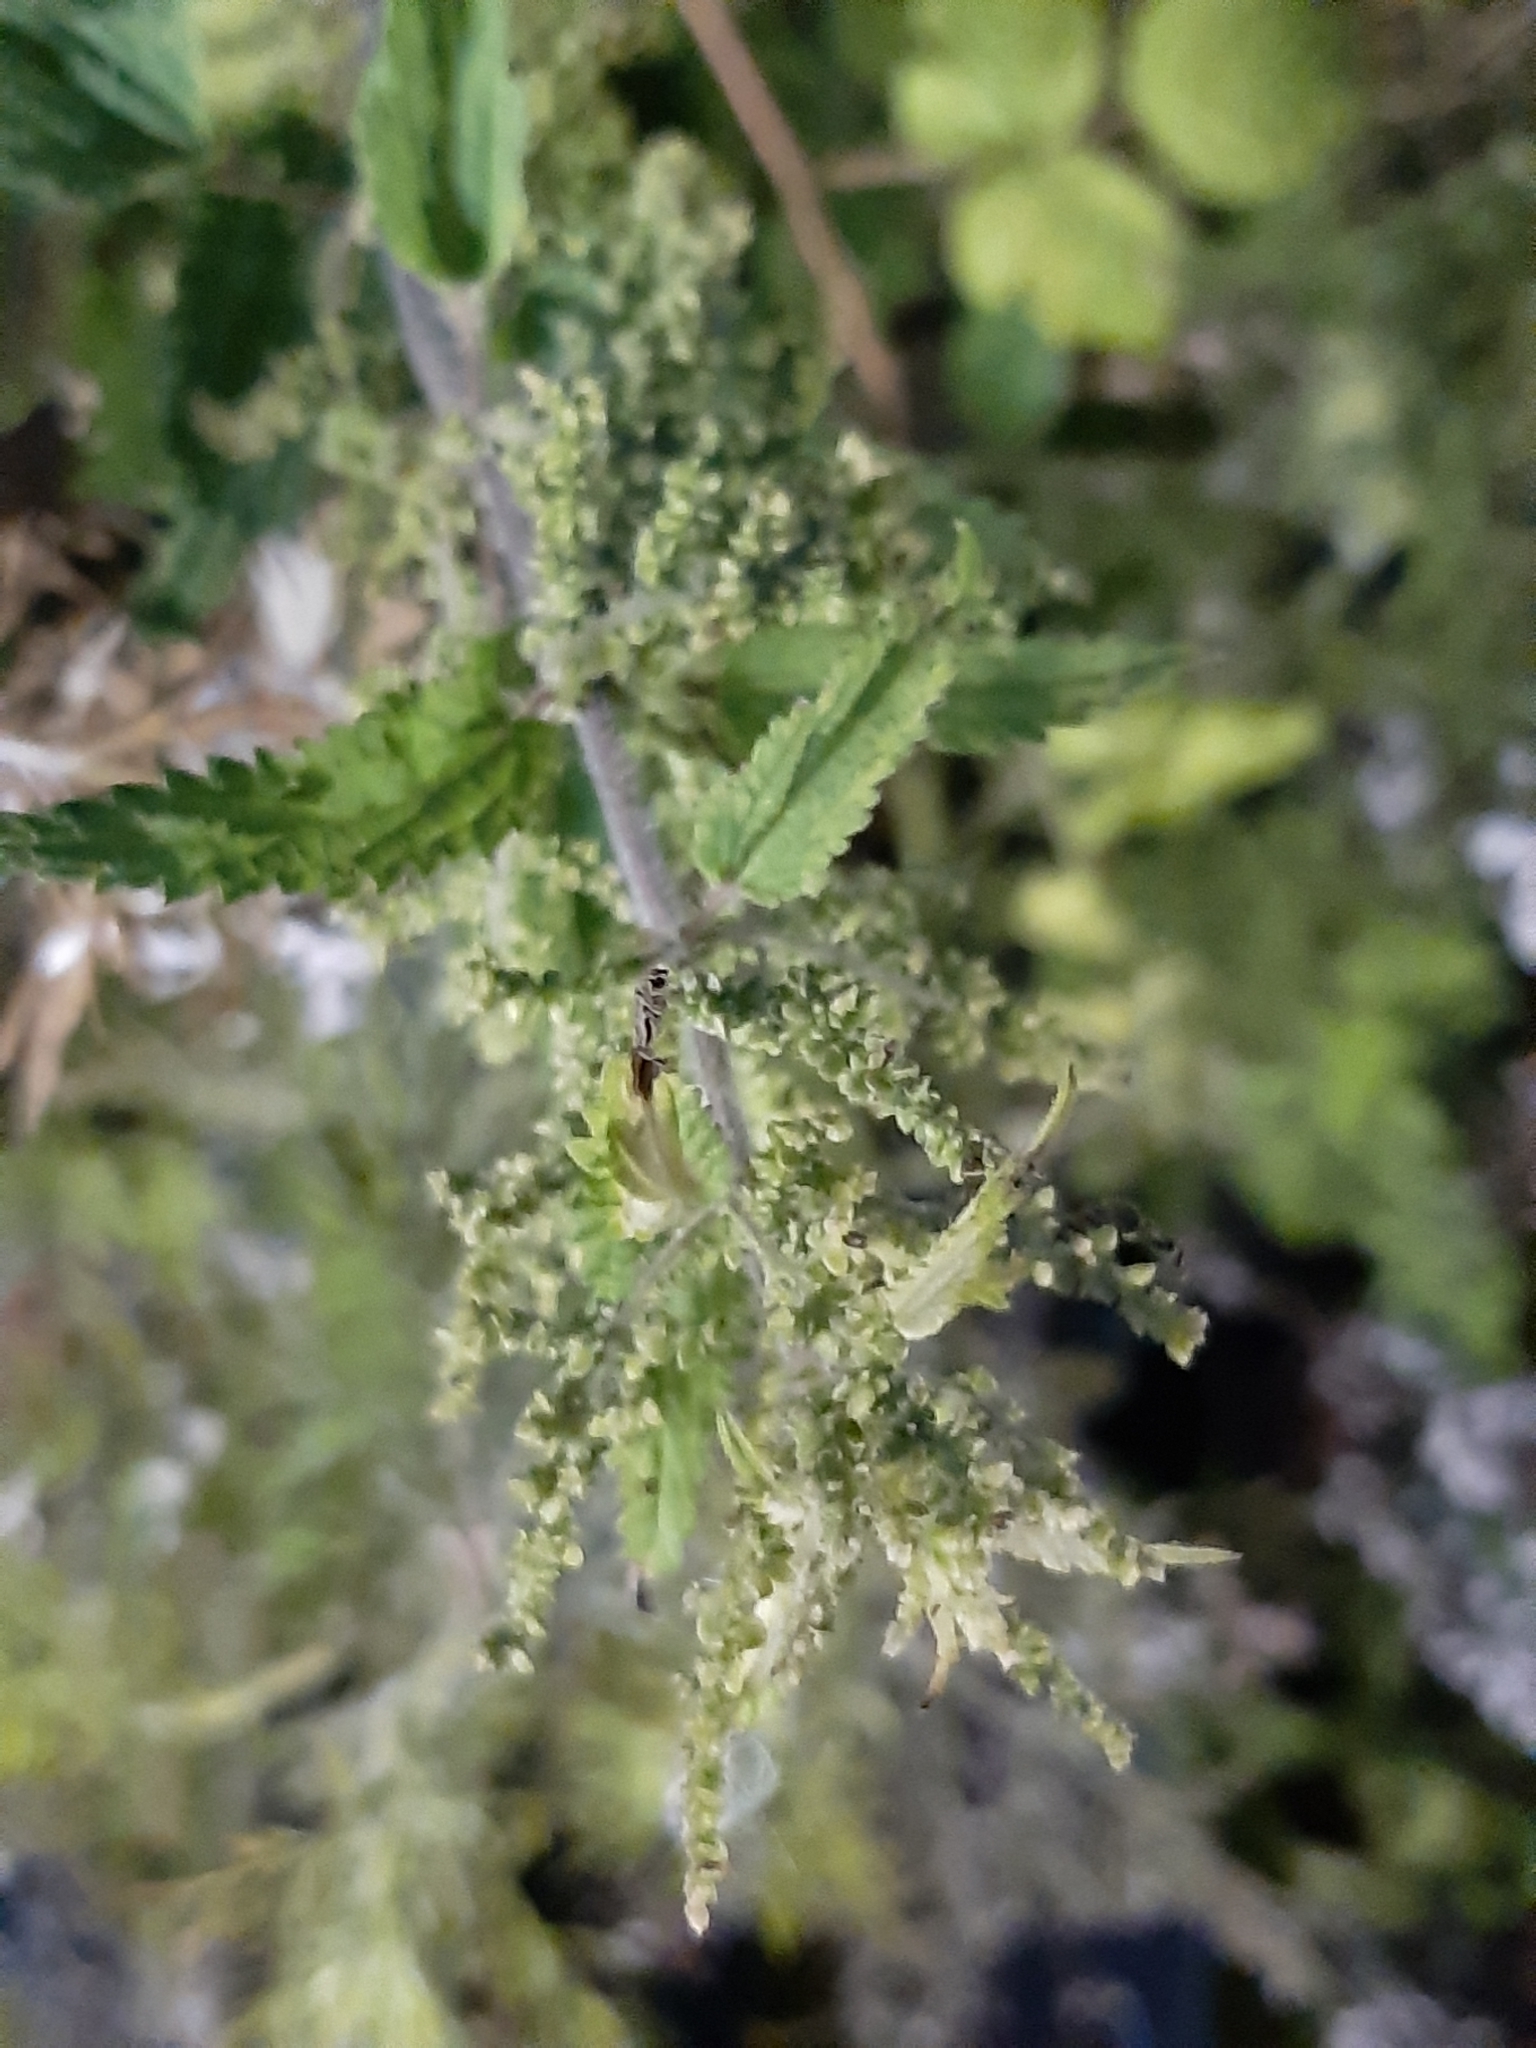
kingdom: Plantae
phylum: Tracheophyta
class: Magnoliopsida
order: Rosales
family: Urticaceae
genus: Urtica
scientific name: Urtica dioica
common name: Common nettle
